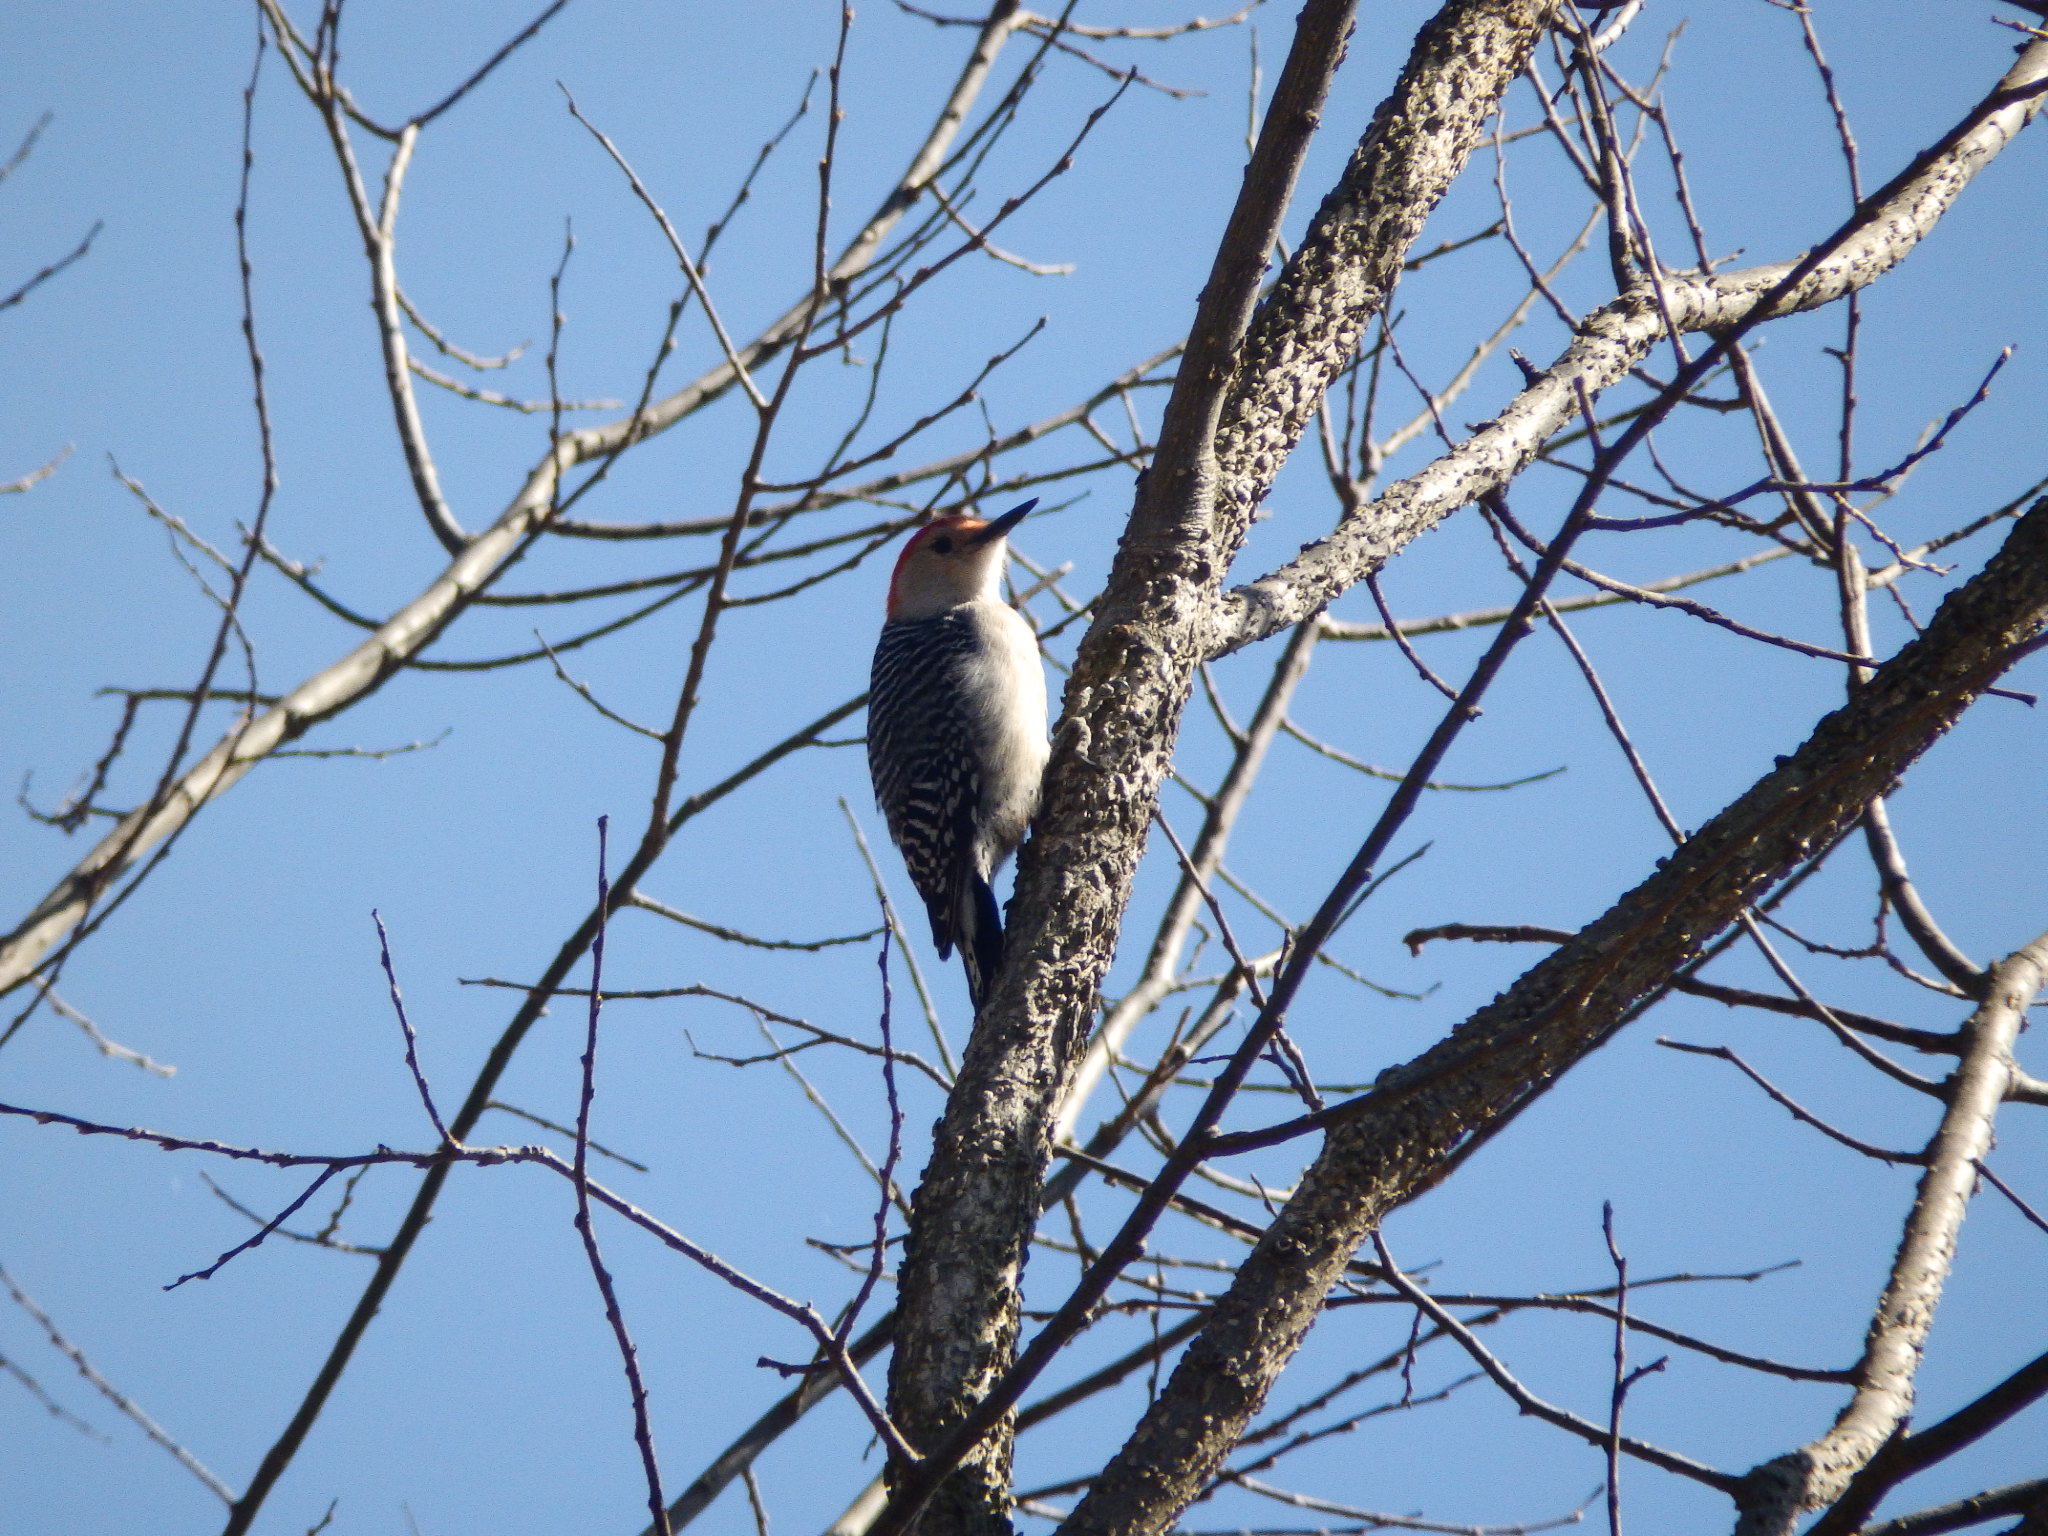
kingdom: Animalia
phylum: Chordata
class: Aves
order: Piciformes
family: Picidae
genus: Melanerpes
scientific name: Melanerpes carolinus
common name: Red-bellied woodpecker
